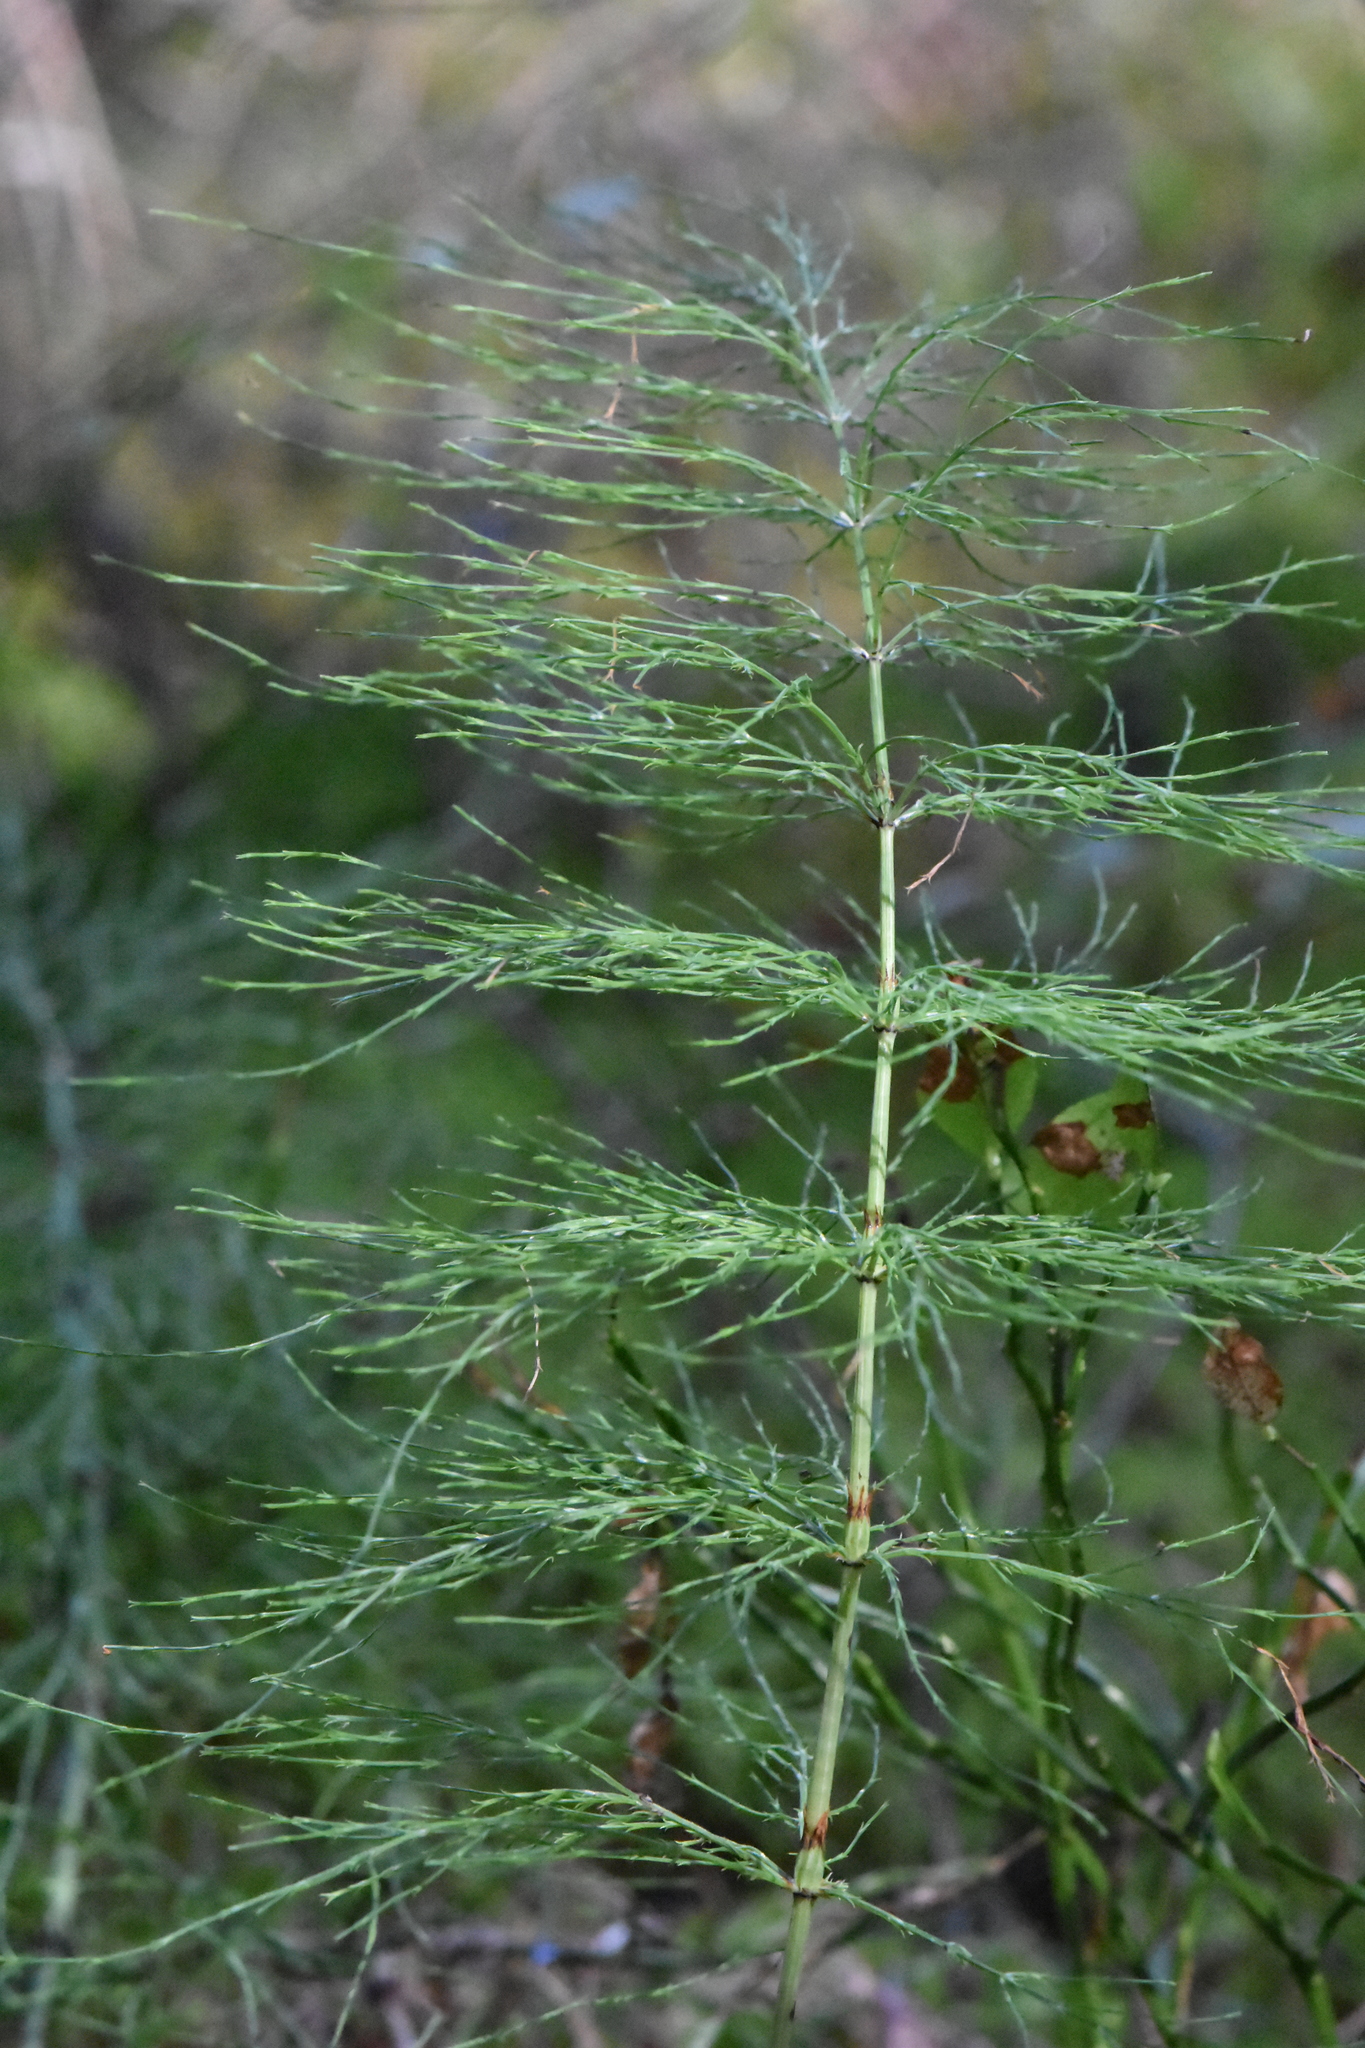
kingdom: Plantae
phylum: Tracheophyta
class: Polypodiopsida
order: Equisetales
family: Equisetaceae
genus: Equisetum
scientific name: Equisetum sylvaticum
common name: Wood horsetail
